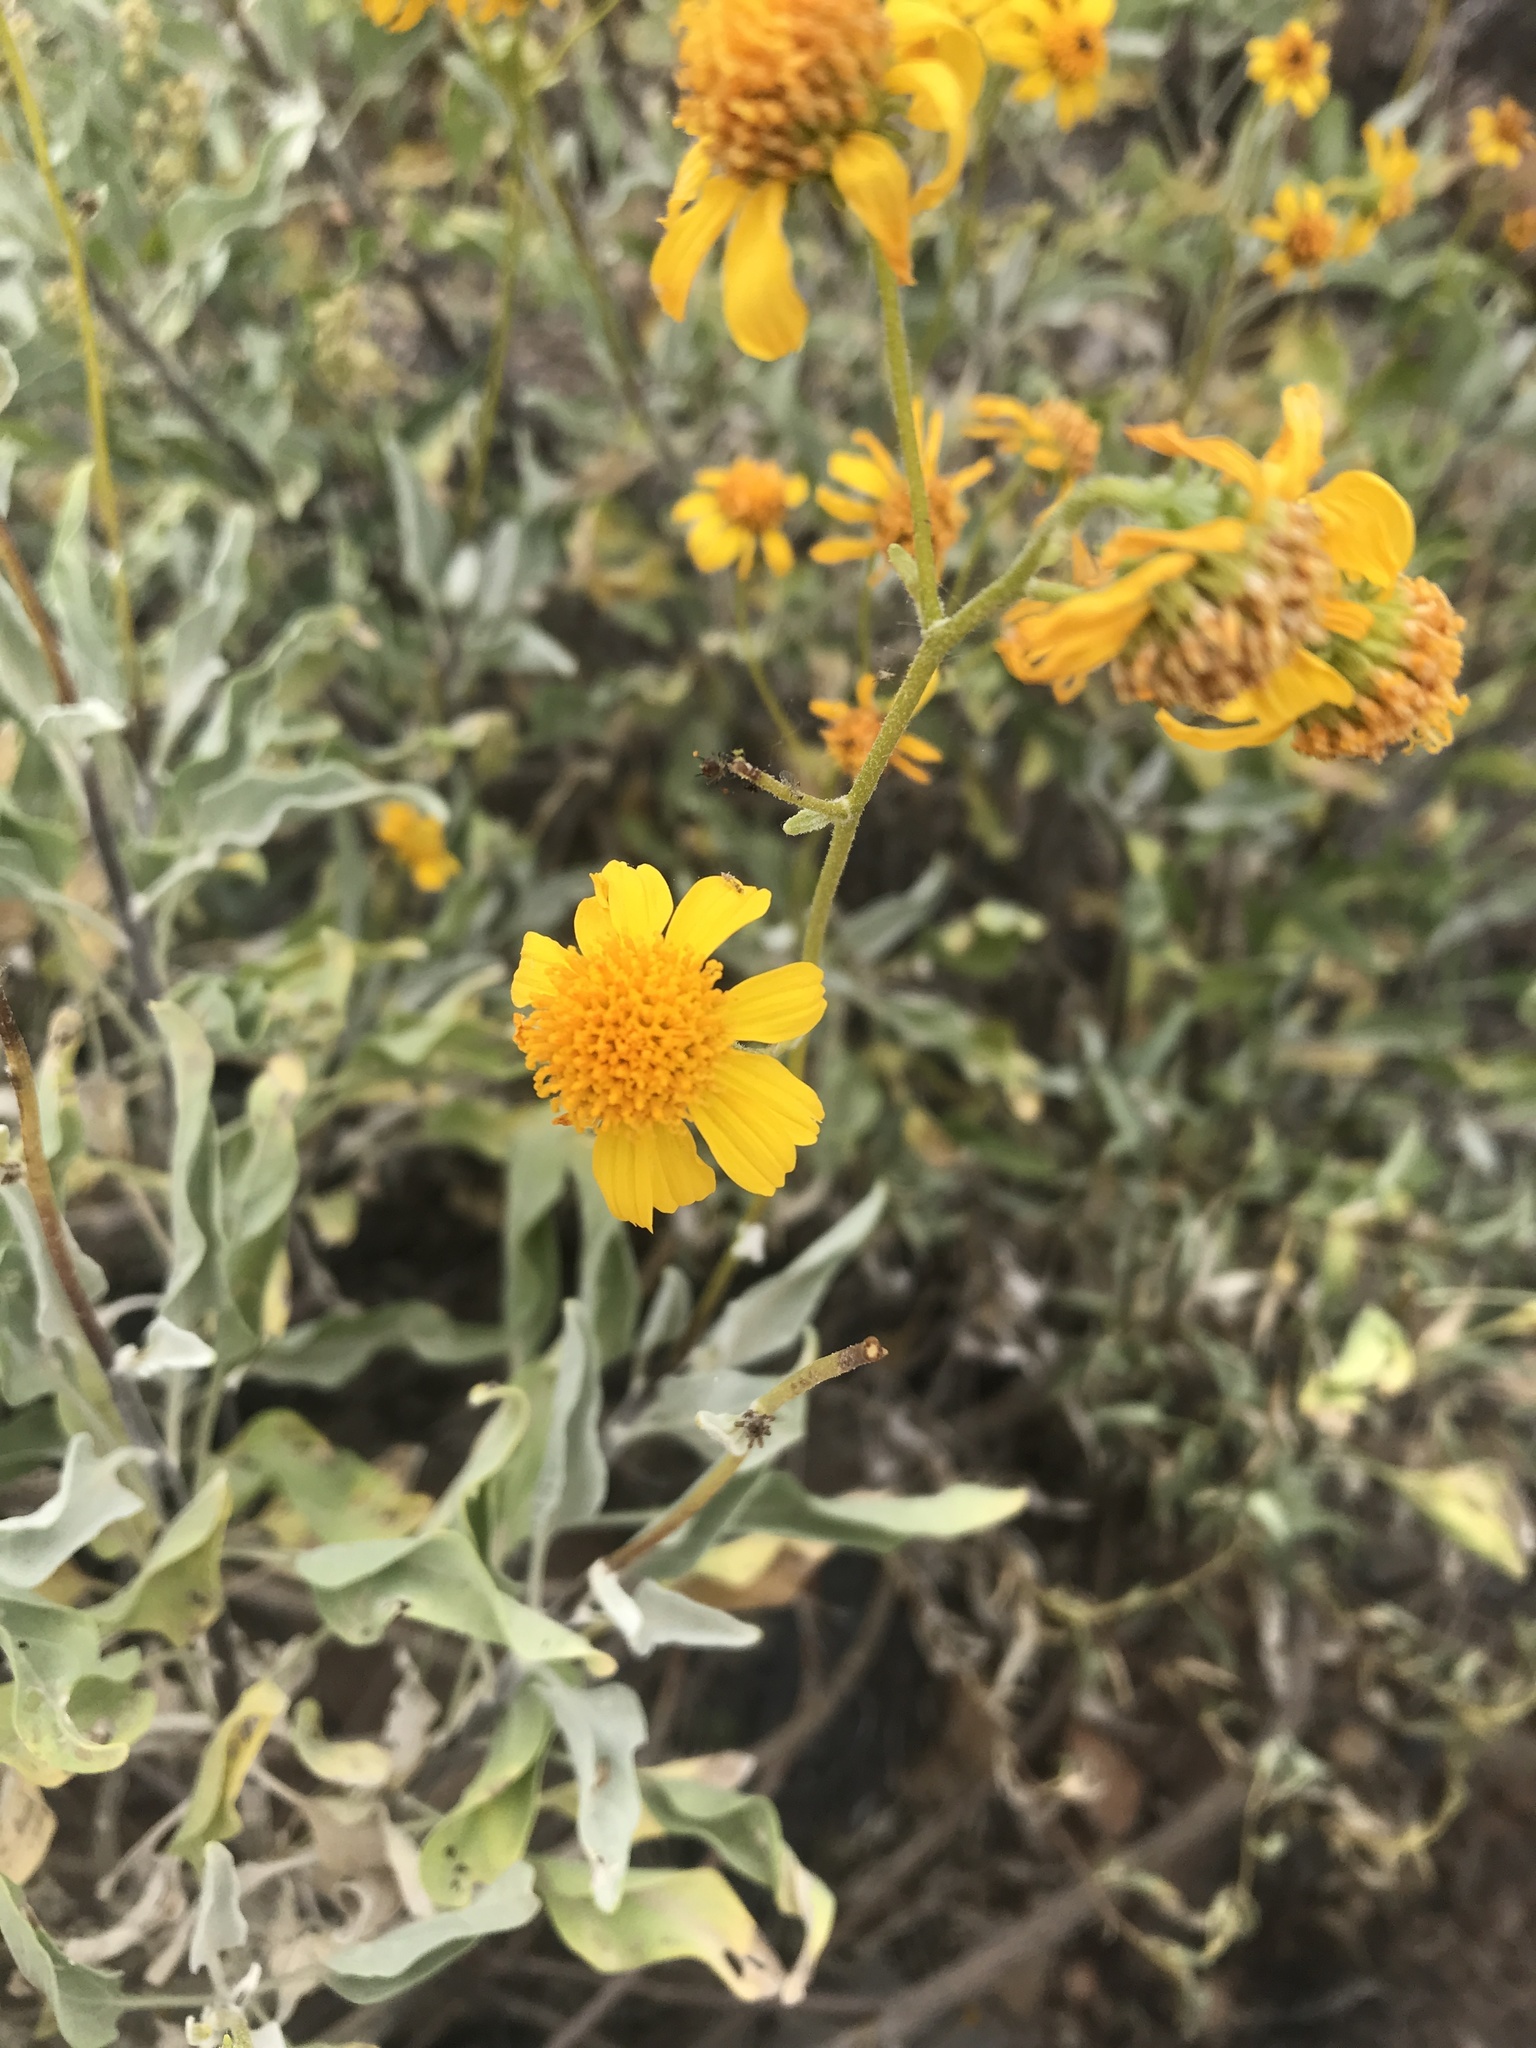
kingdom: Plantae
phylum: Tracheophyta
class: Magnoliopsida
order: Asterales
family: Asteraceae
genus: Encelia
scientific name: Encelia farinosa
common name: Brittlebush
